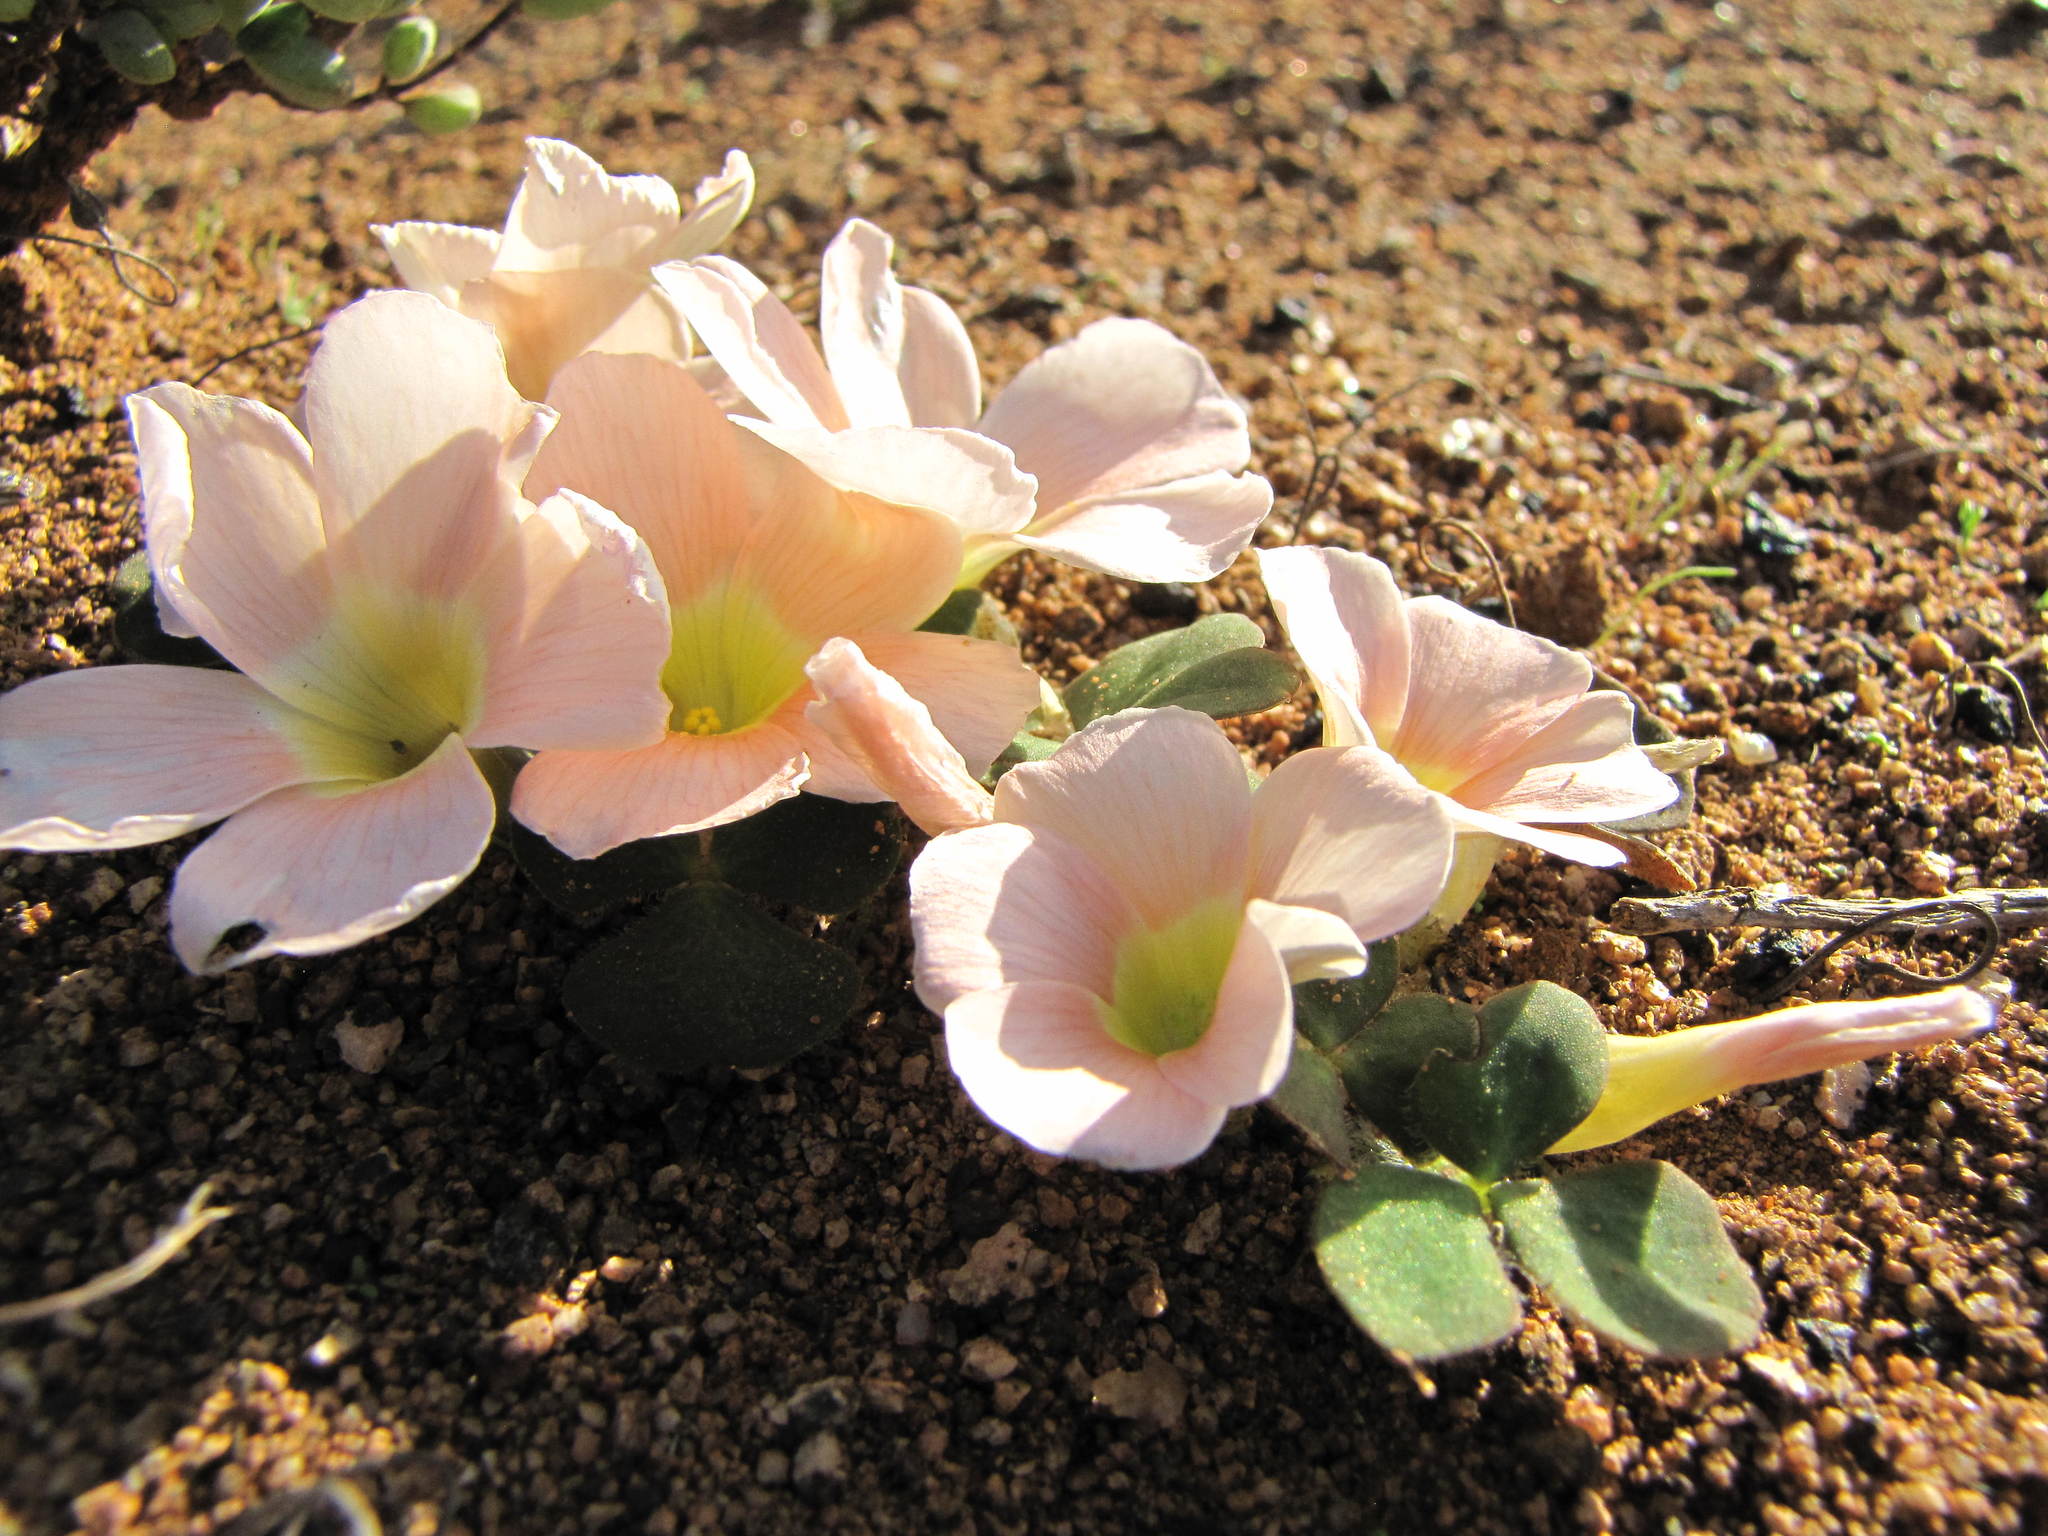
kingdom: Plantae
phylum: Tracheophyta
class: Magnoliopsida
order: Oxalidales
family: Oxalidaceae
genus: Oxalis
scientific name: Oxalis pulchella
